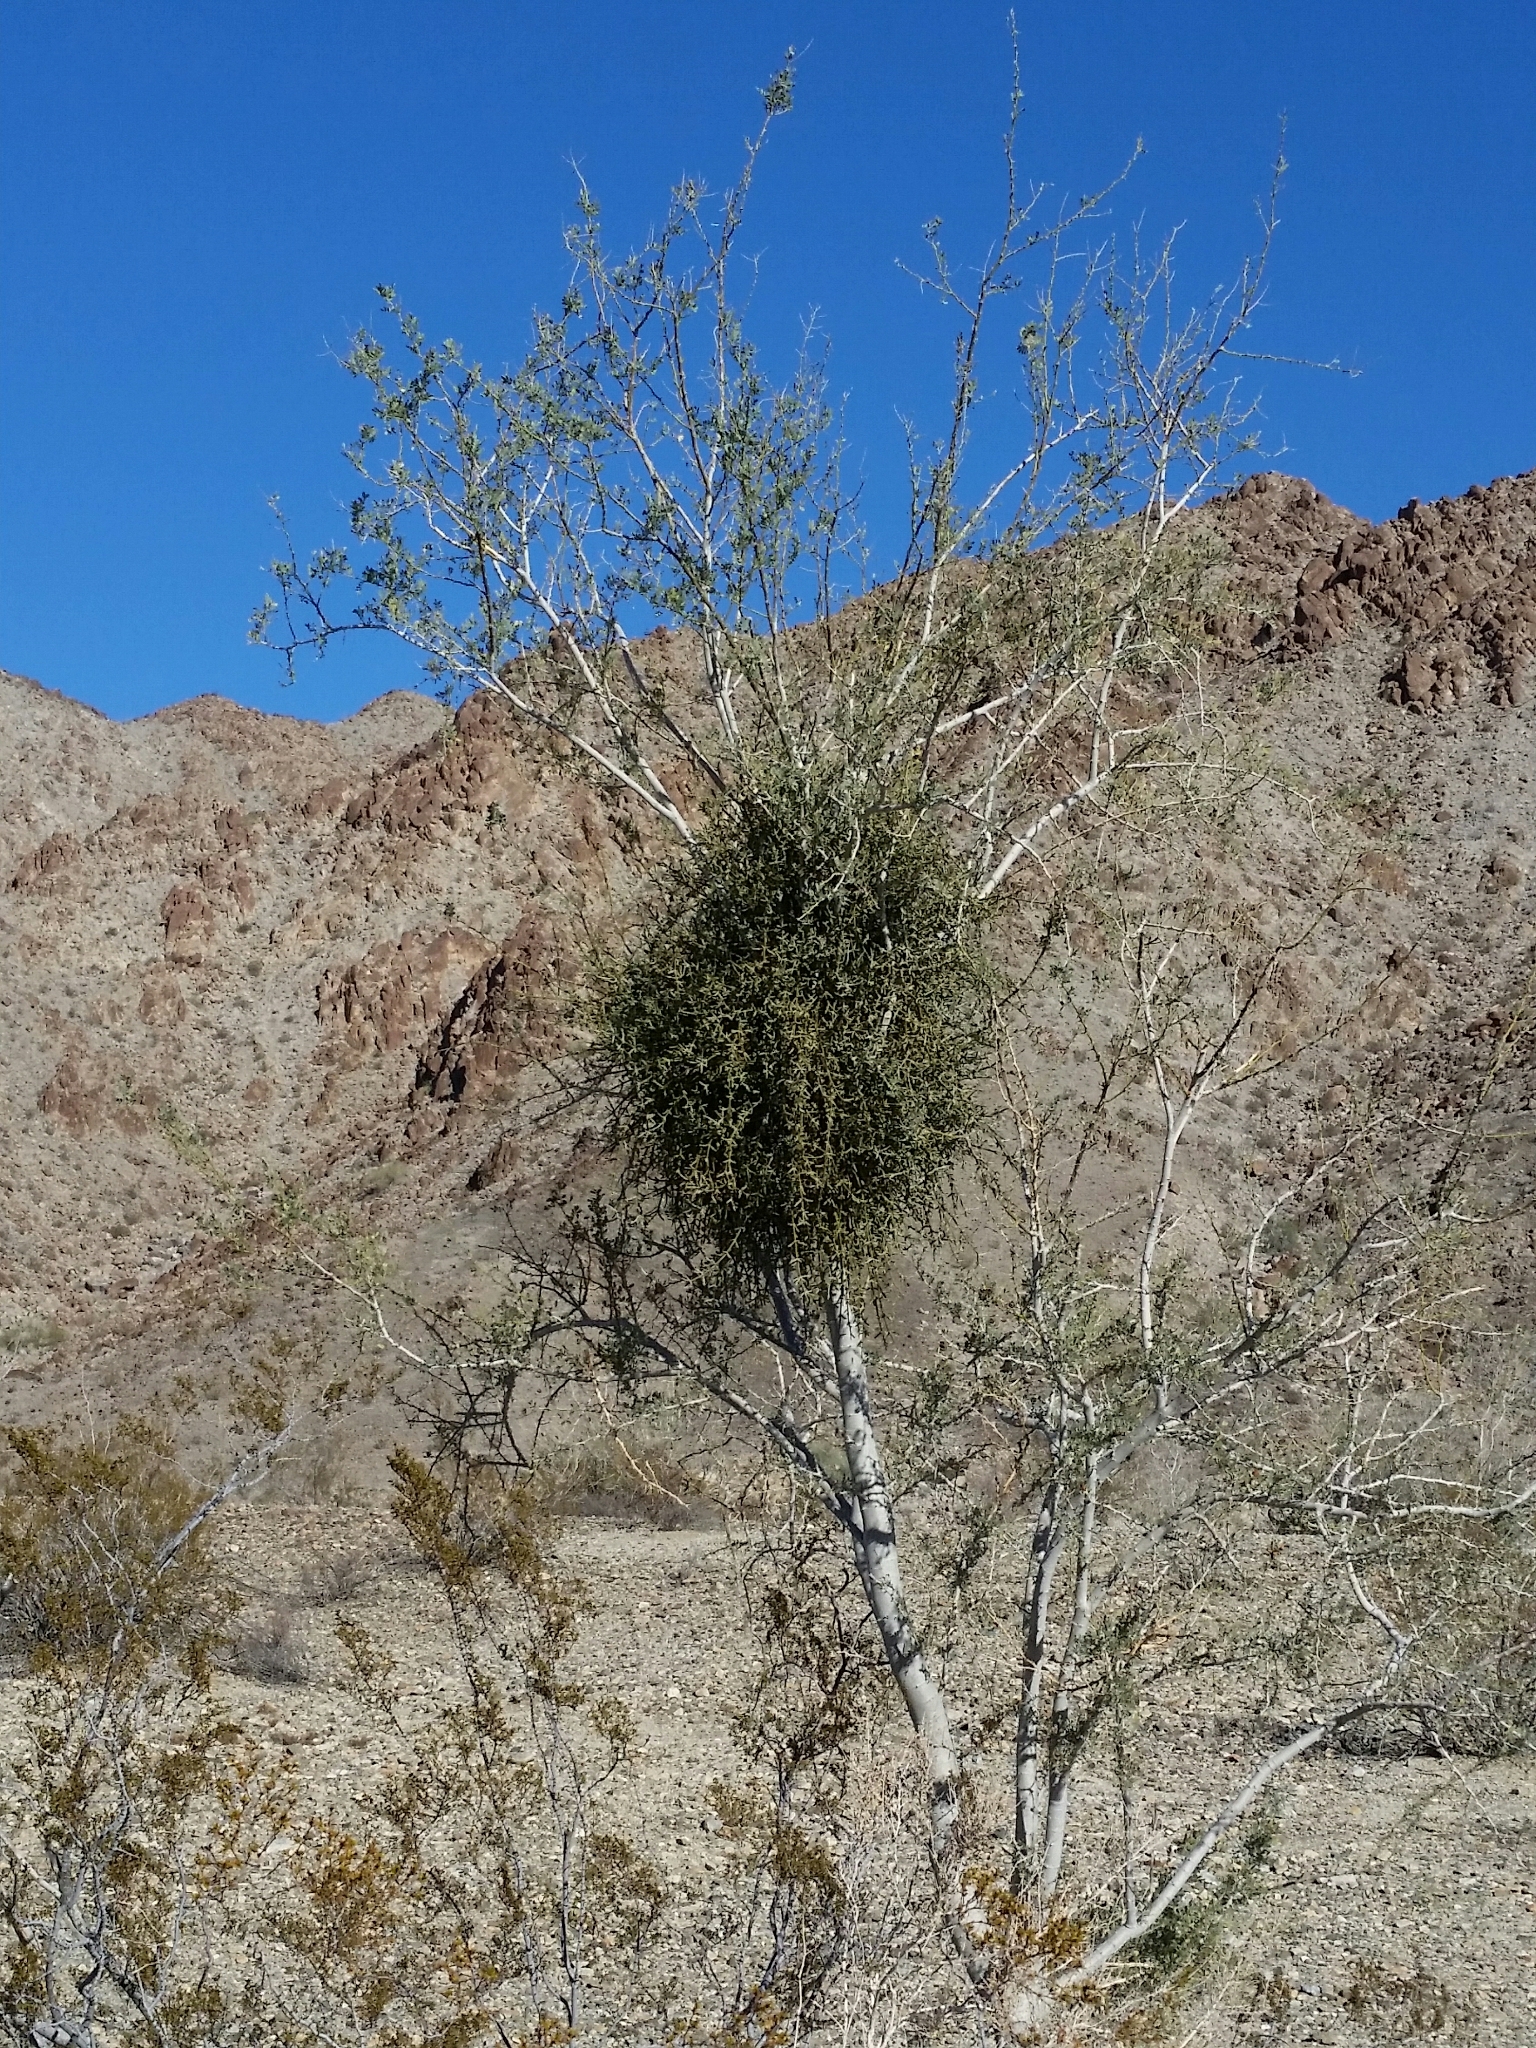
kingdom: Plantae
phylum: Tracheophyta
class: Magnoliopsida
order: Fabales
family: Fabaceae
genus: Olneya
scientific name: Olneya tesota
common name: Desert ironwood
